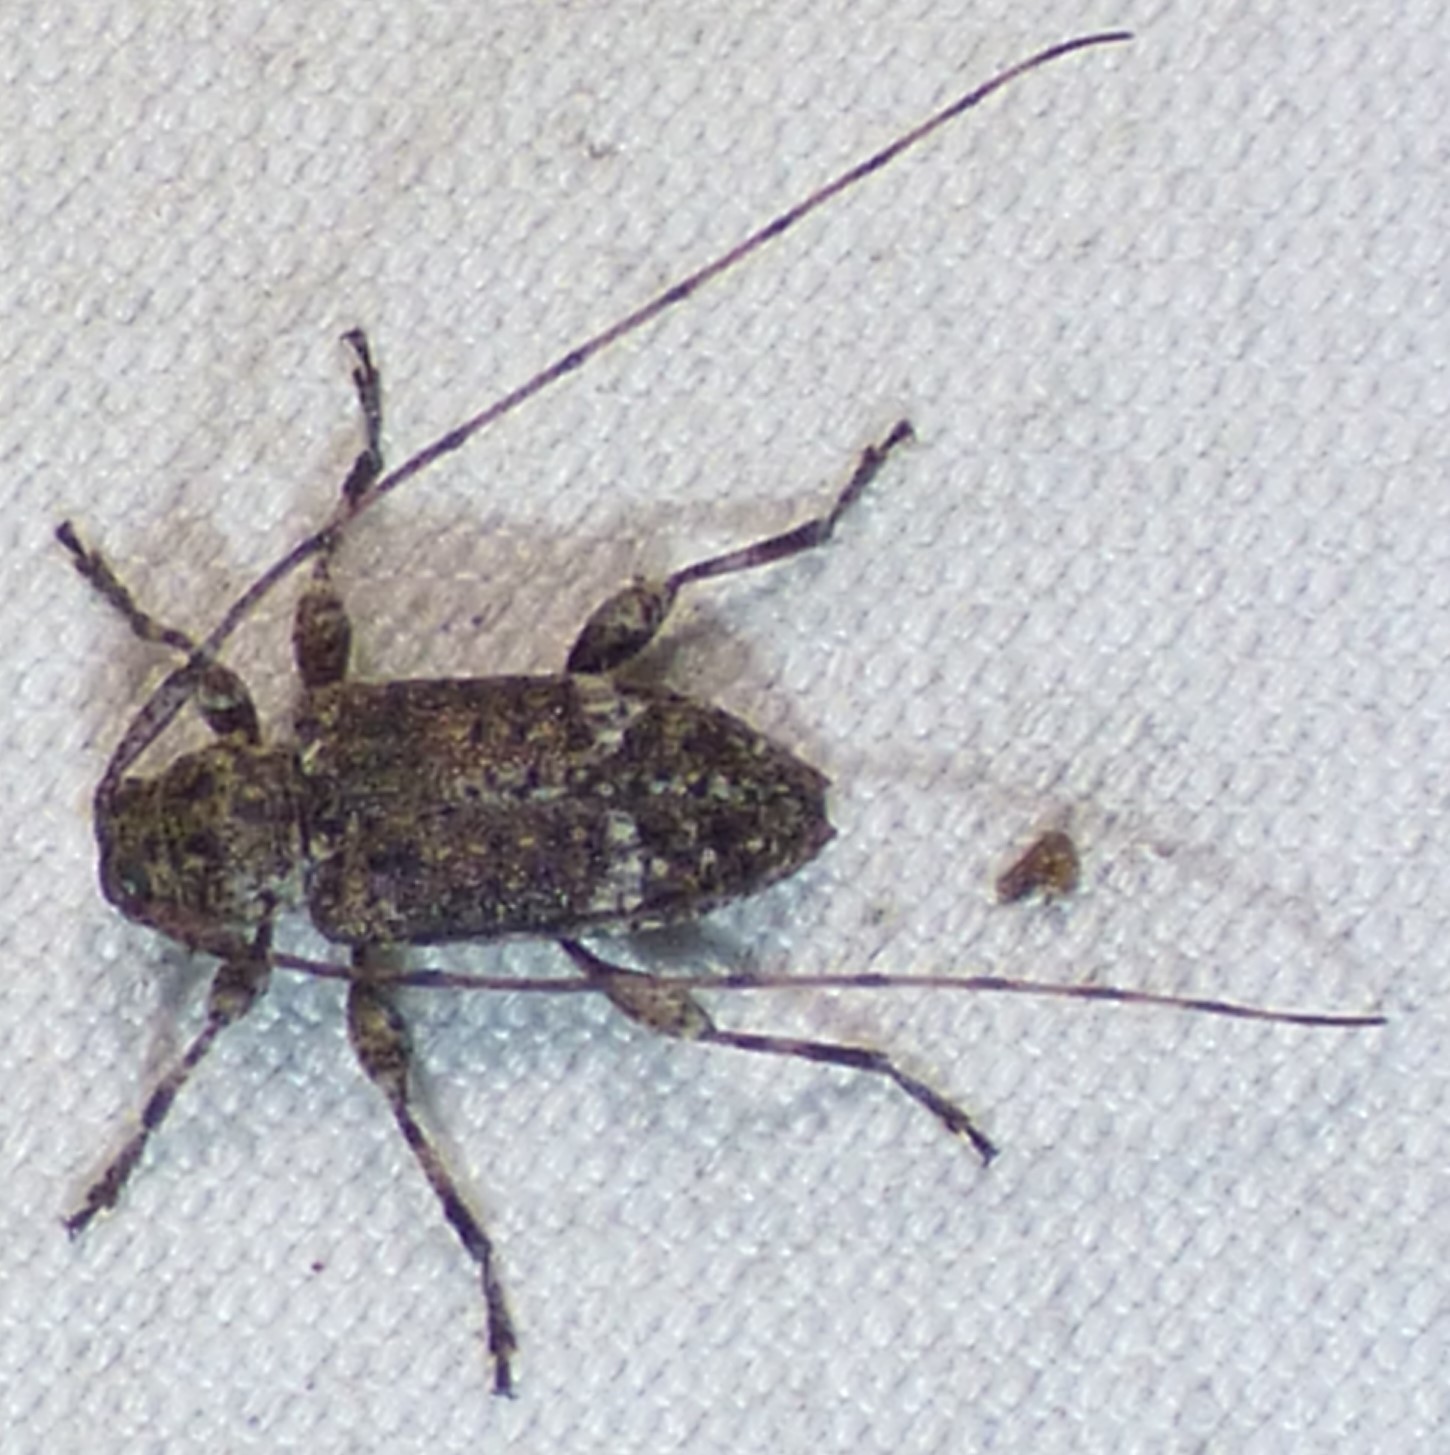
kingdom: Animalia
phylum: Arthropoda
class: Insecta
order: Coleoptera
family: Cerambycidae
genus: Sternidius
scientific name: Sternidius punctatus
